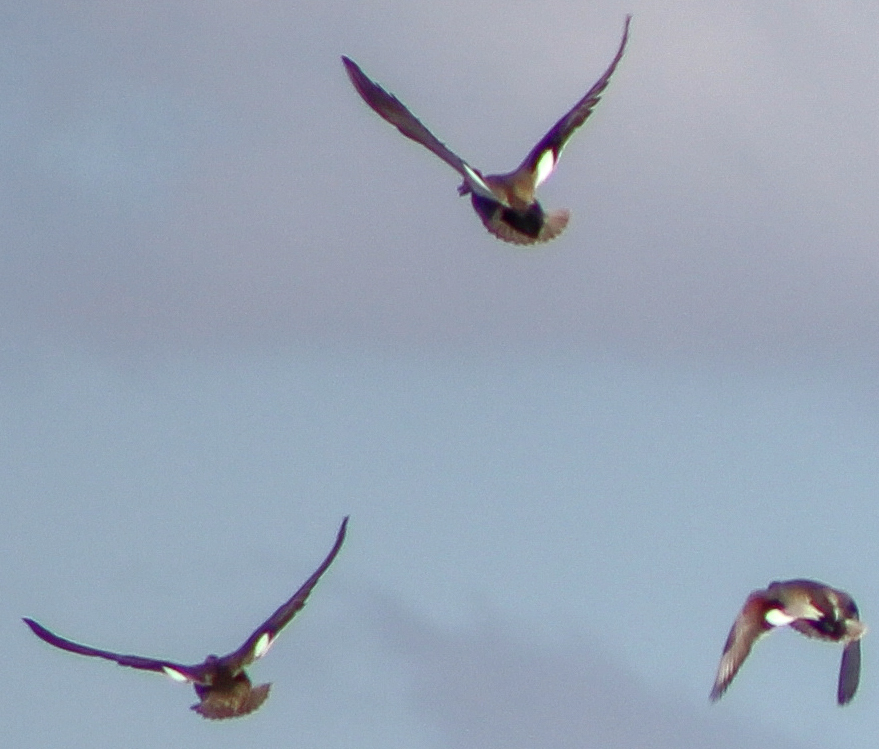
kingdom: Animalia
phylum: Chordata
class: Aves
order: Anseriformes
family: Anatidae
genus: Mareca
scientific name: Mareca strepera
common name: Gadwall
